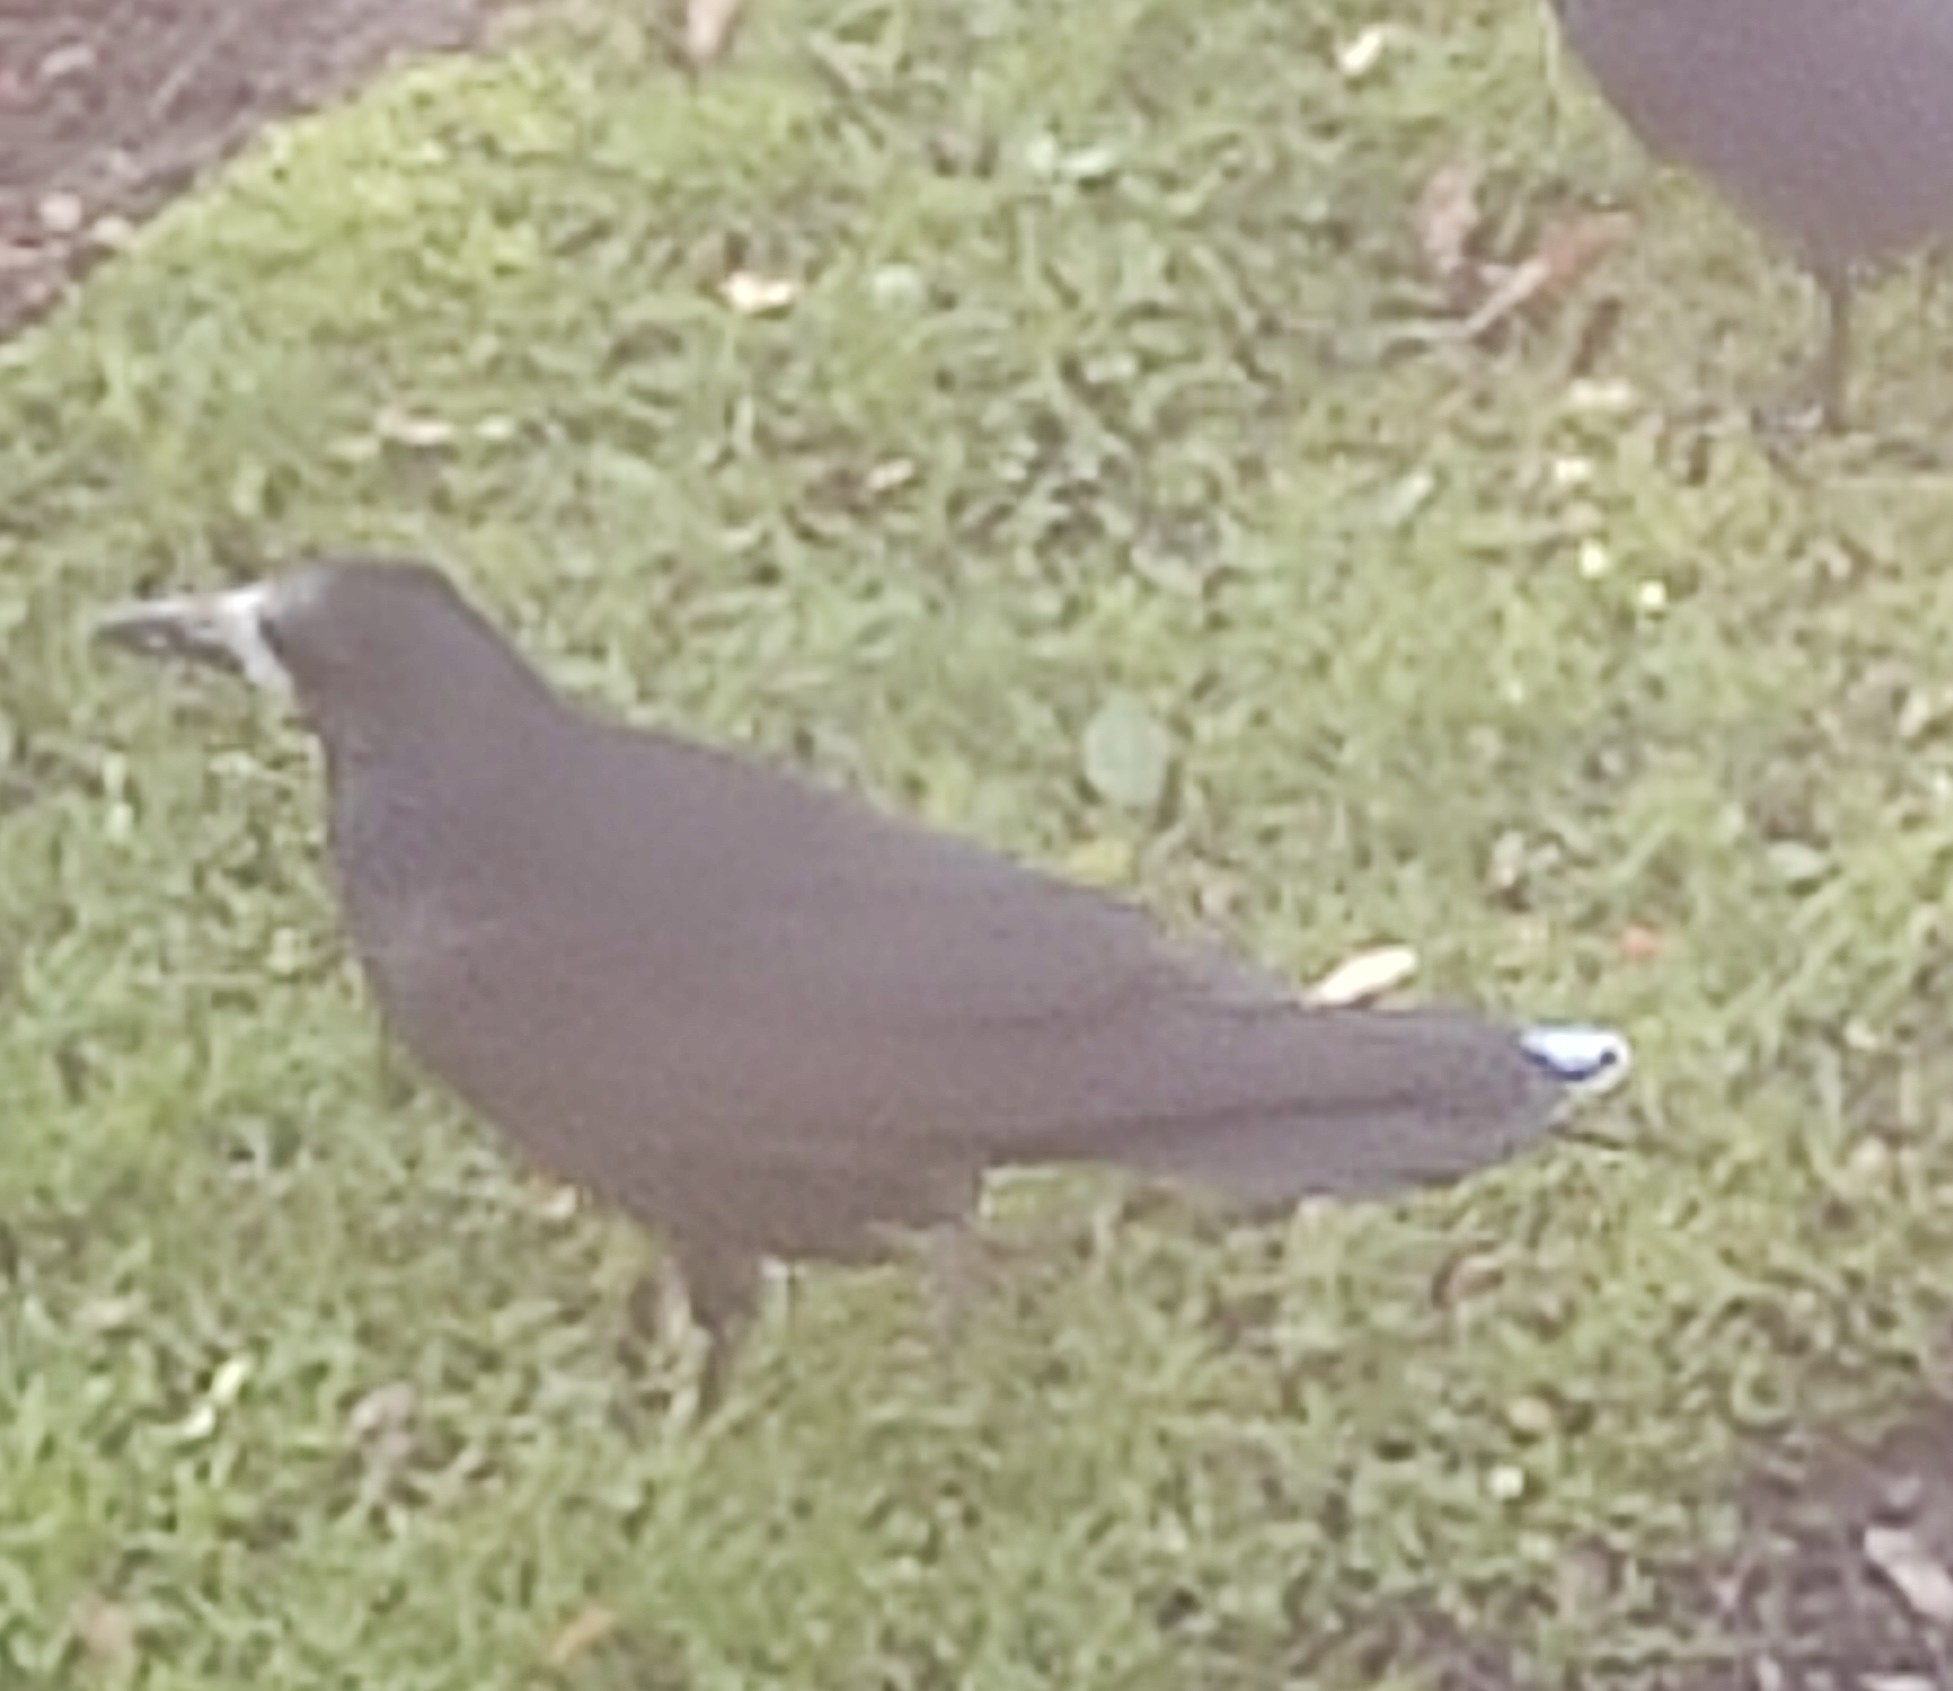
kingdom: Animalia
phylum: Chordata
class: Aves
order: Passeriformes
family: Corvidae
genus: Corvus
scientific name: Corvus frugilegus
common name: Rook
